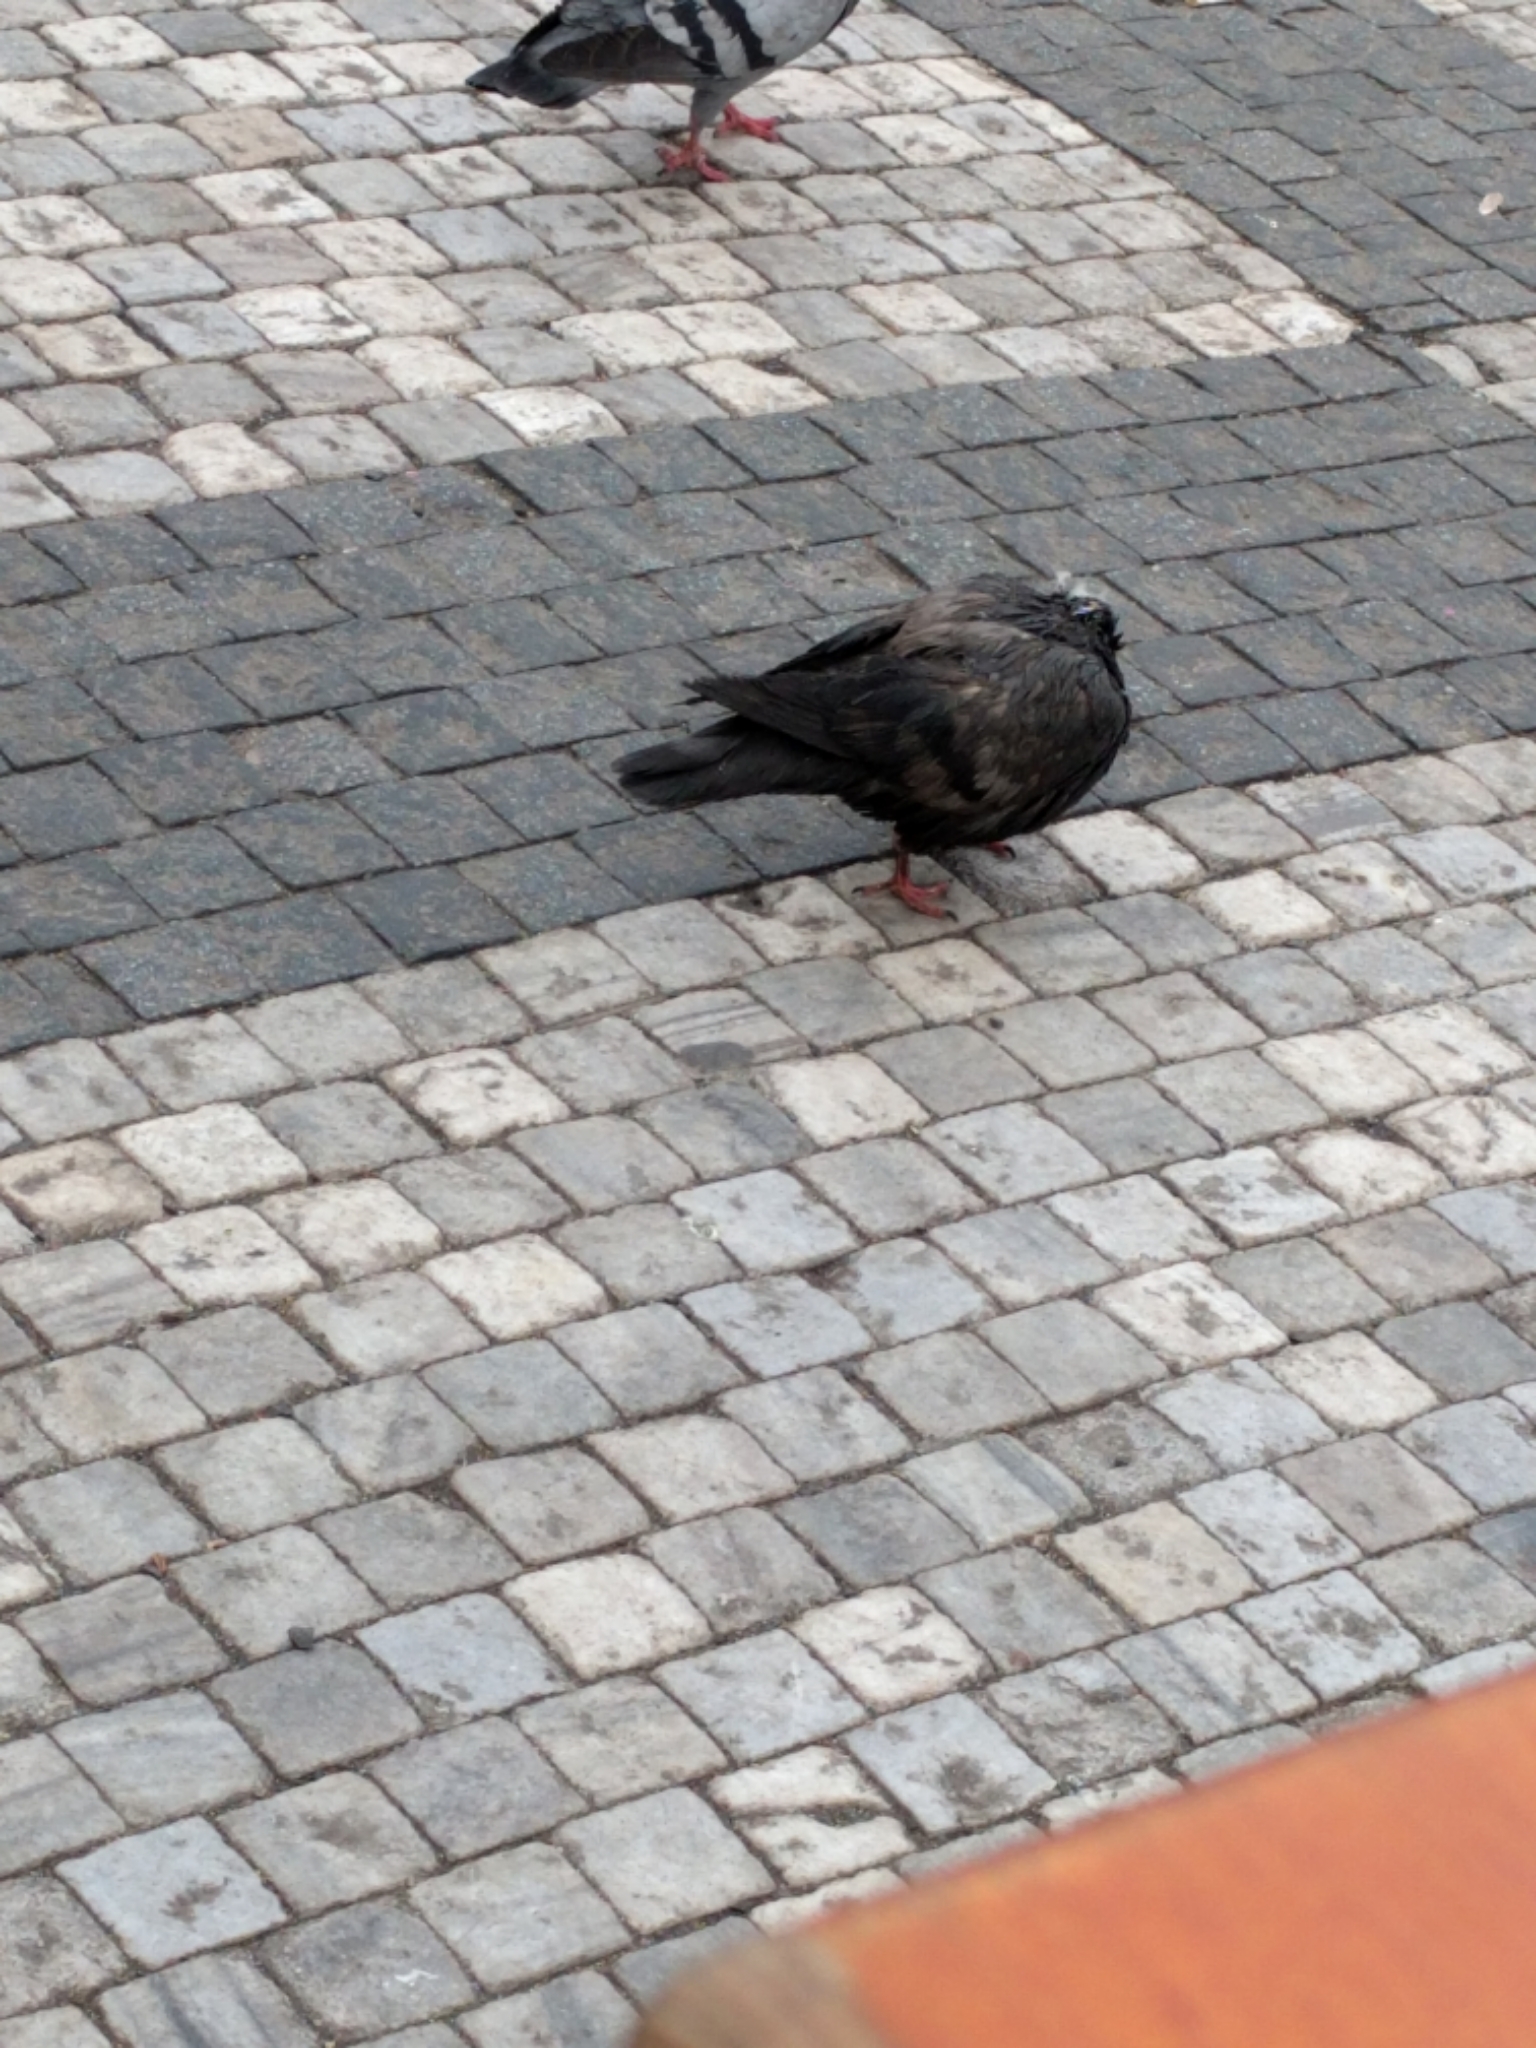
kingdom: Animalia
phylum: Chordata
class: Aves
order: Columbiformes
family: Columbidae
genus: Columba
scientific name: Columba livia
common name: Rock pigeon
